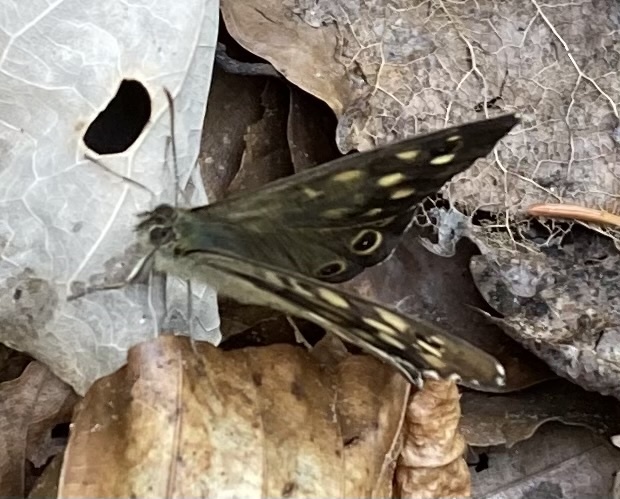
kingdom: Animalia
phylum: Arthropoda
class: Insecta
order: Lepidoptera
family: Nymphalidae
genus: Pararge
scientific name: Pararge aegeria
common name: Speckled wood
